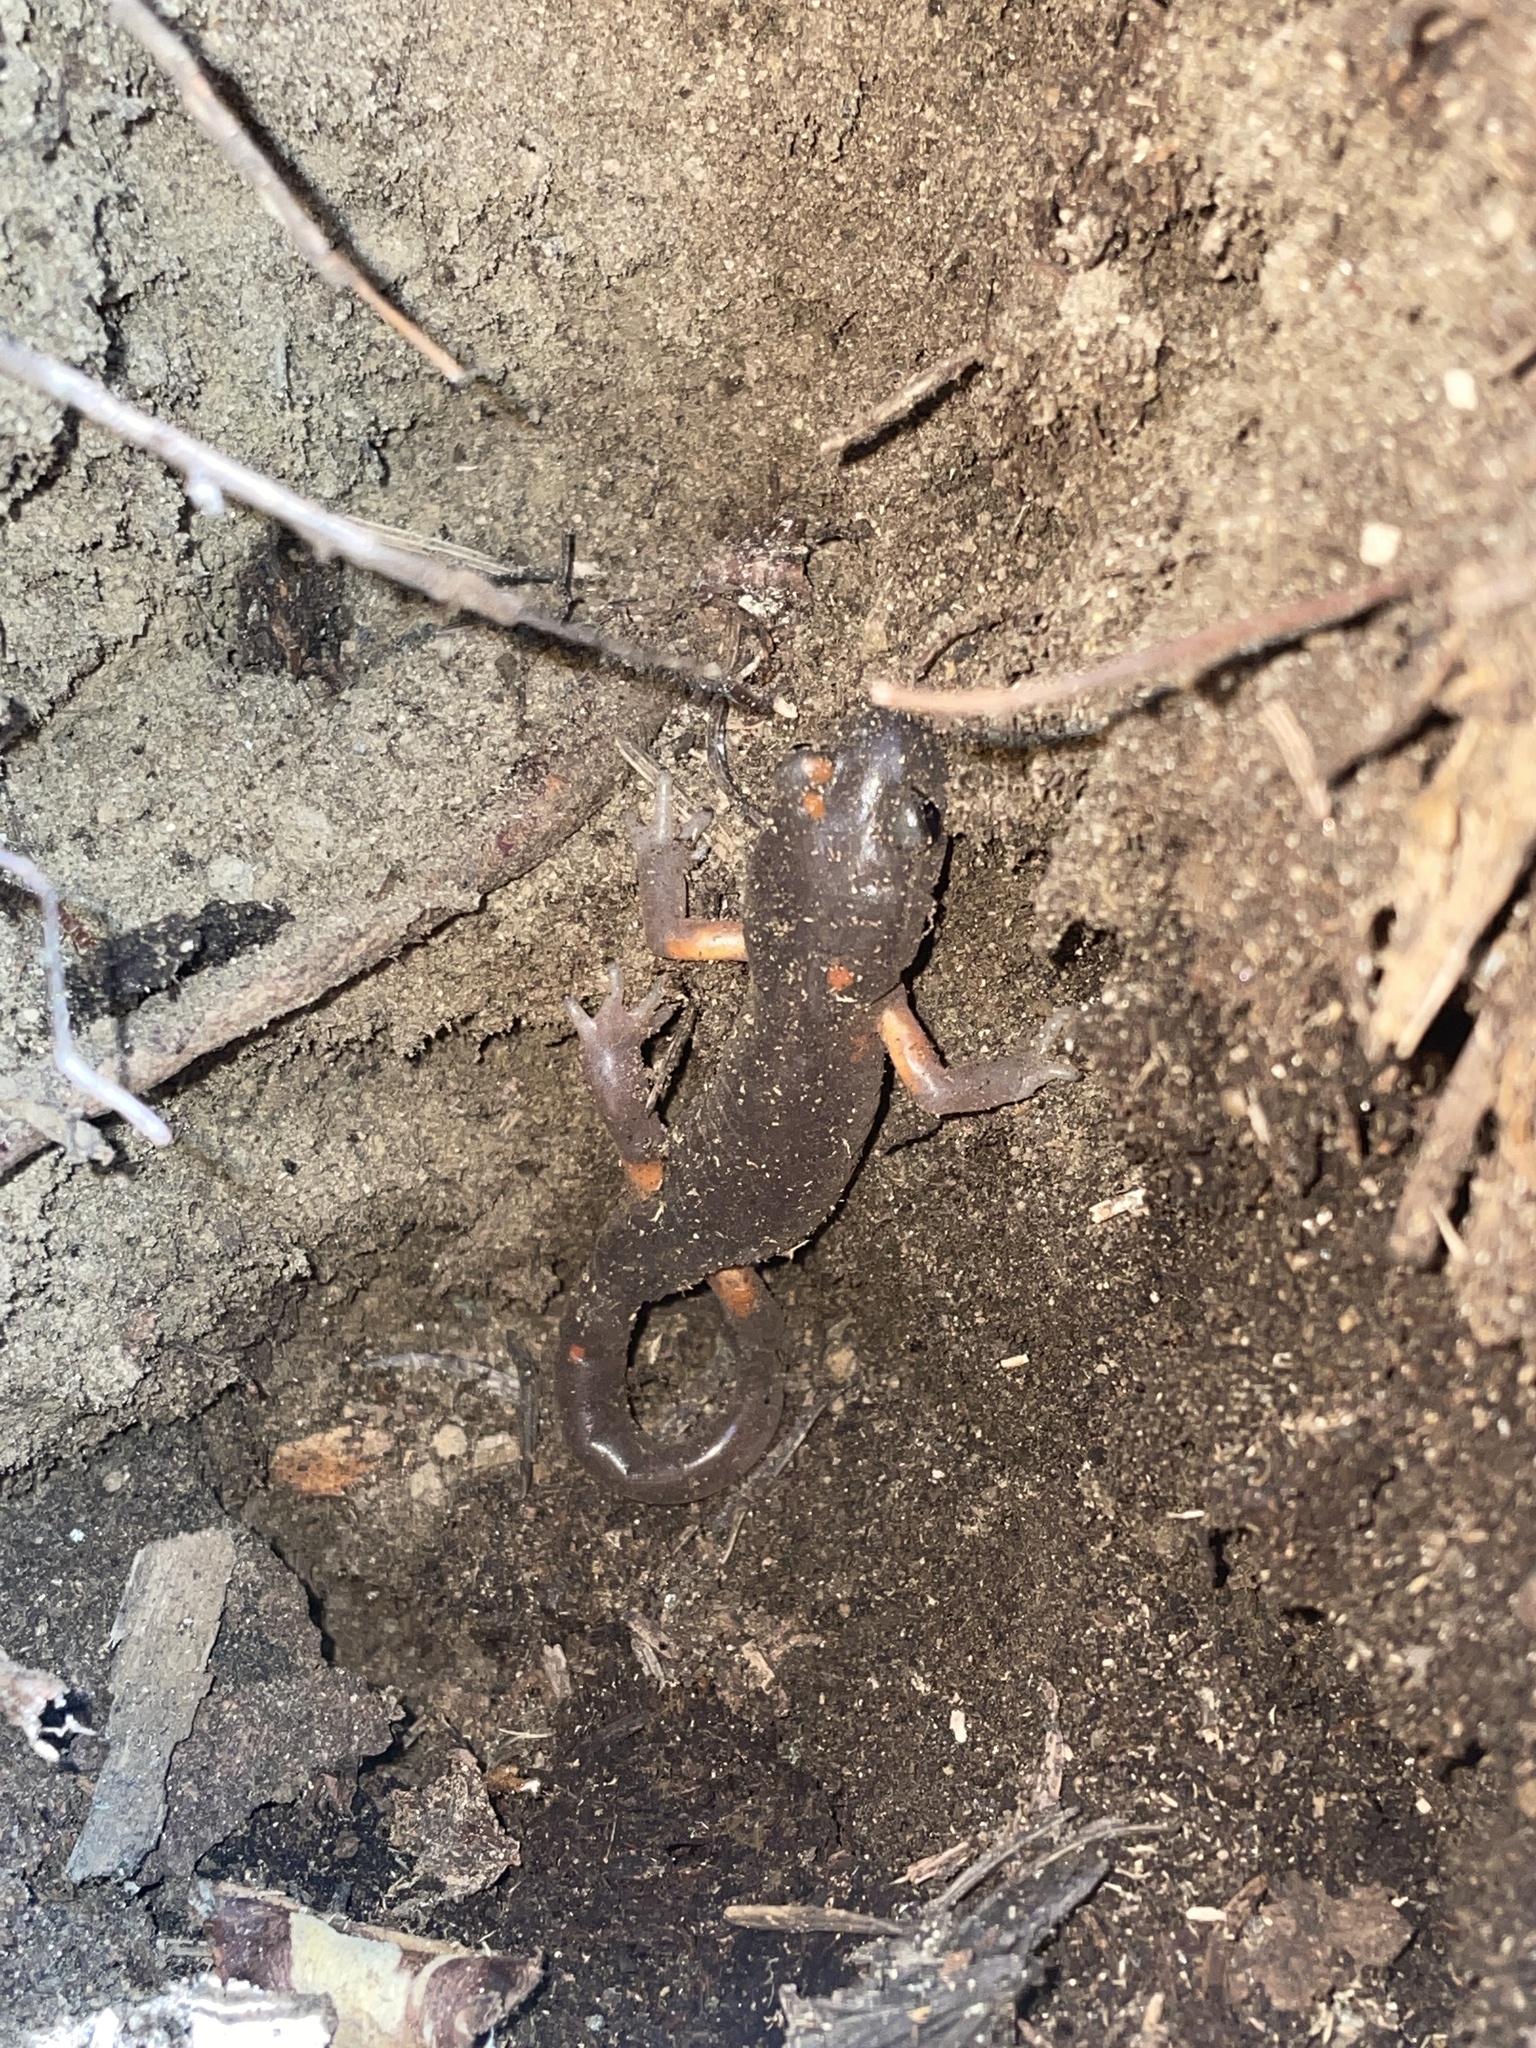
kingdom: Animalia
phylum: Chordata
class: Amphibia
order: Caudata
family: Plethodontidae
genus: Ensatina
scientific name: Ensatina eschscholtzii
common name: Ensatina
